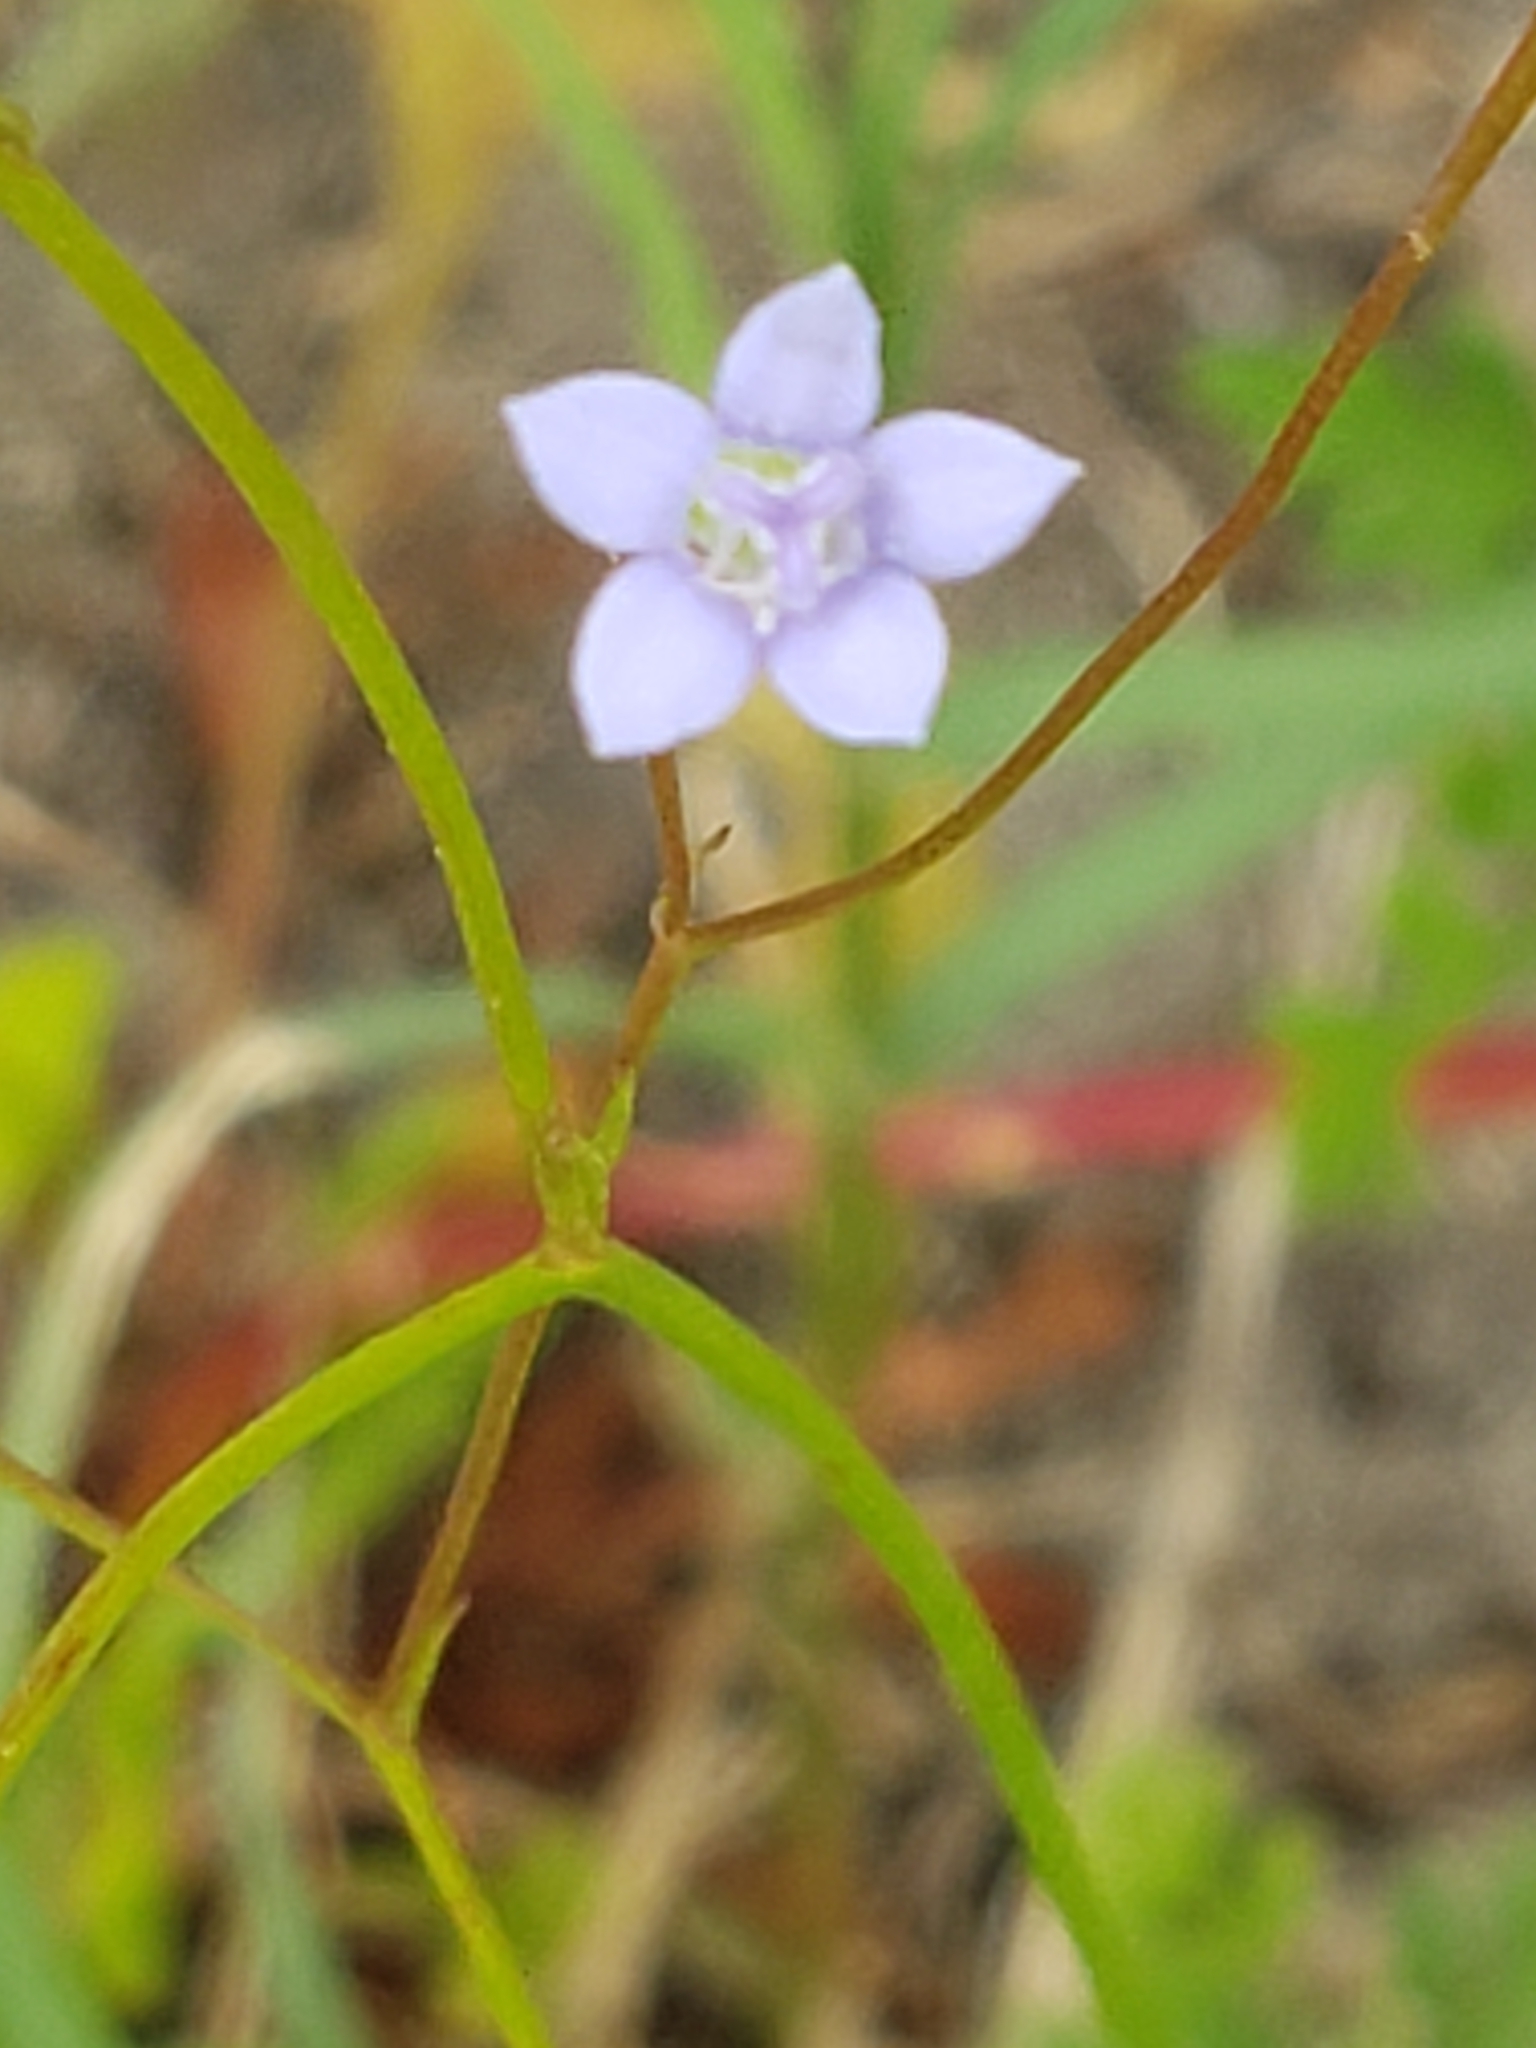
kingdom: Plantae
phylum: Tracheophyta
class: Magnoliopsida
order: Asterales
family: Campanulaceae
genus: Wahlenbergia
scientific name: Wahlenbergia marginata
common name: Southern rockbell
